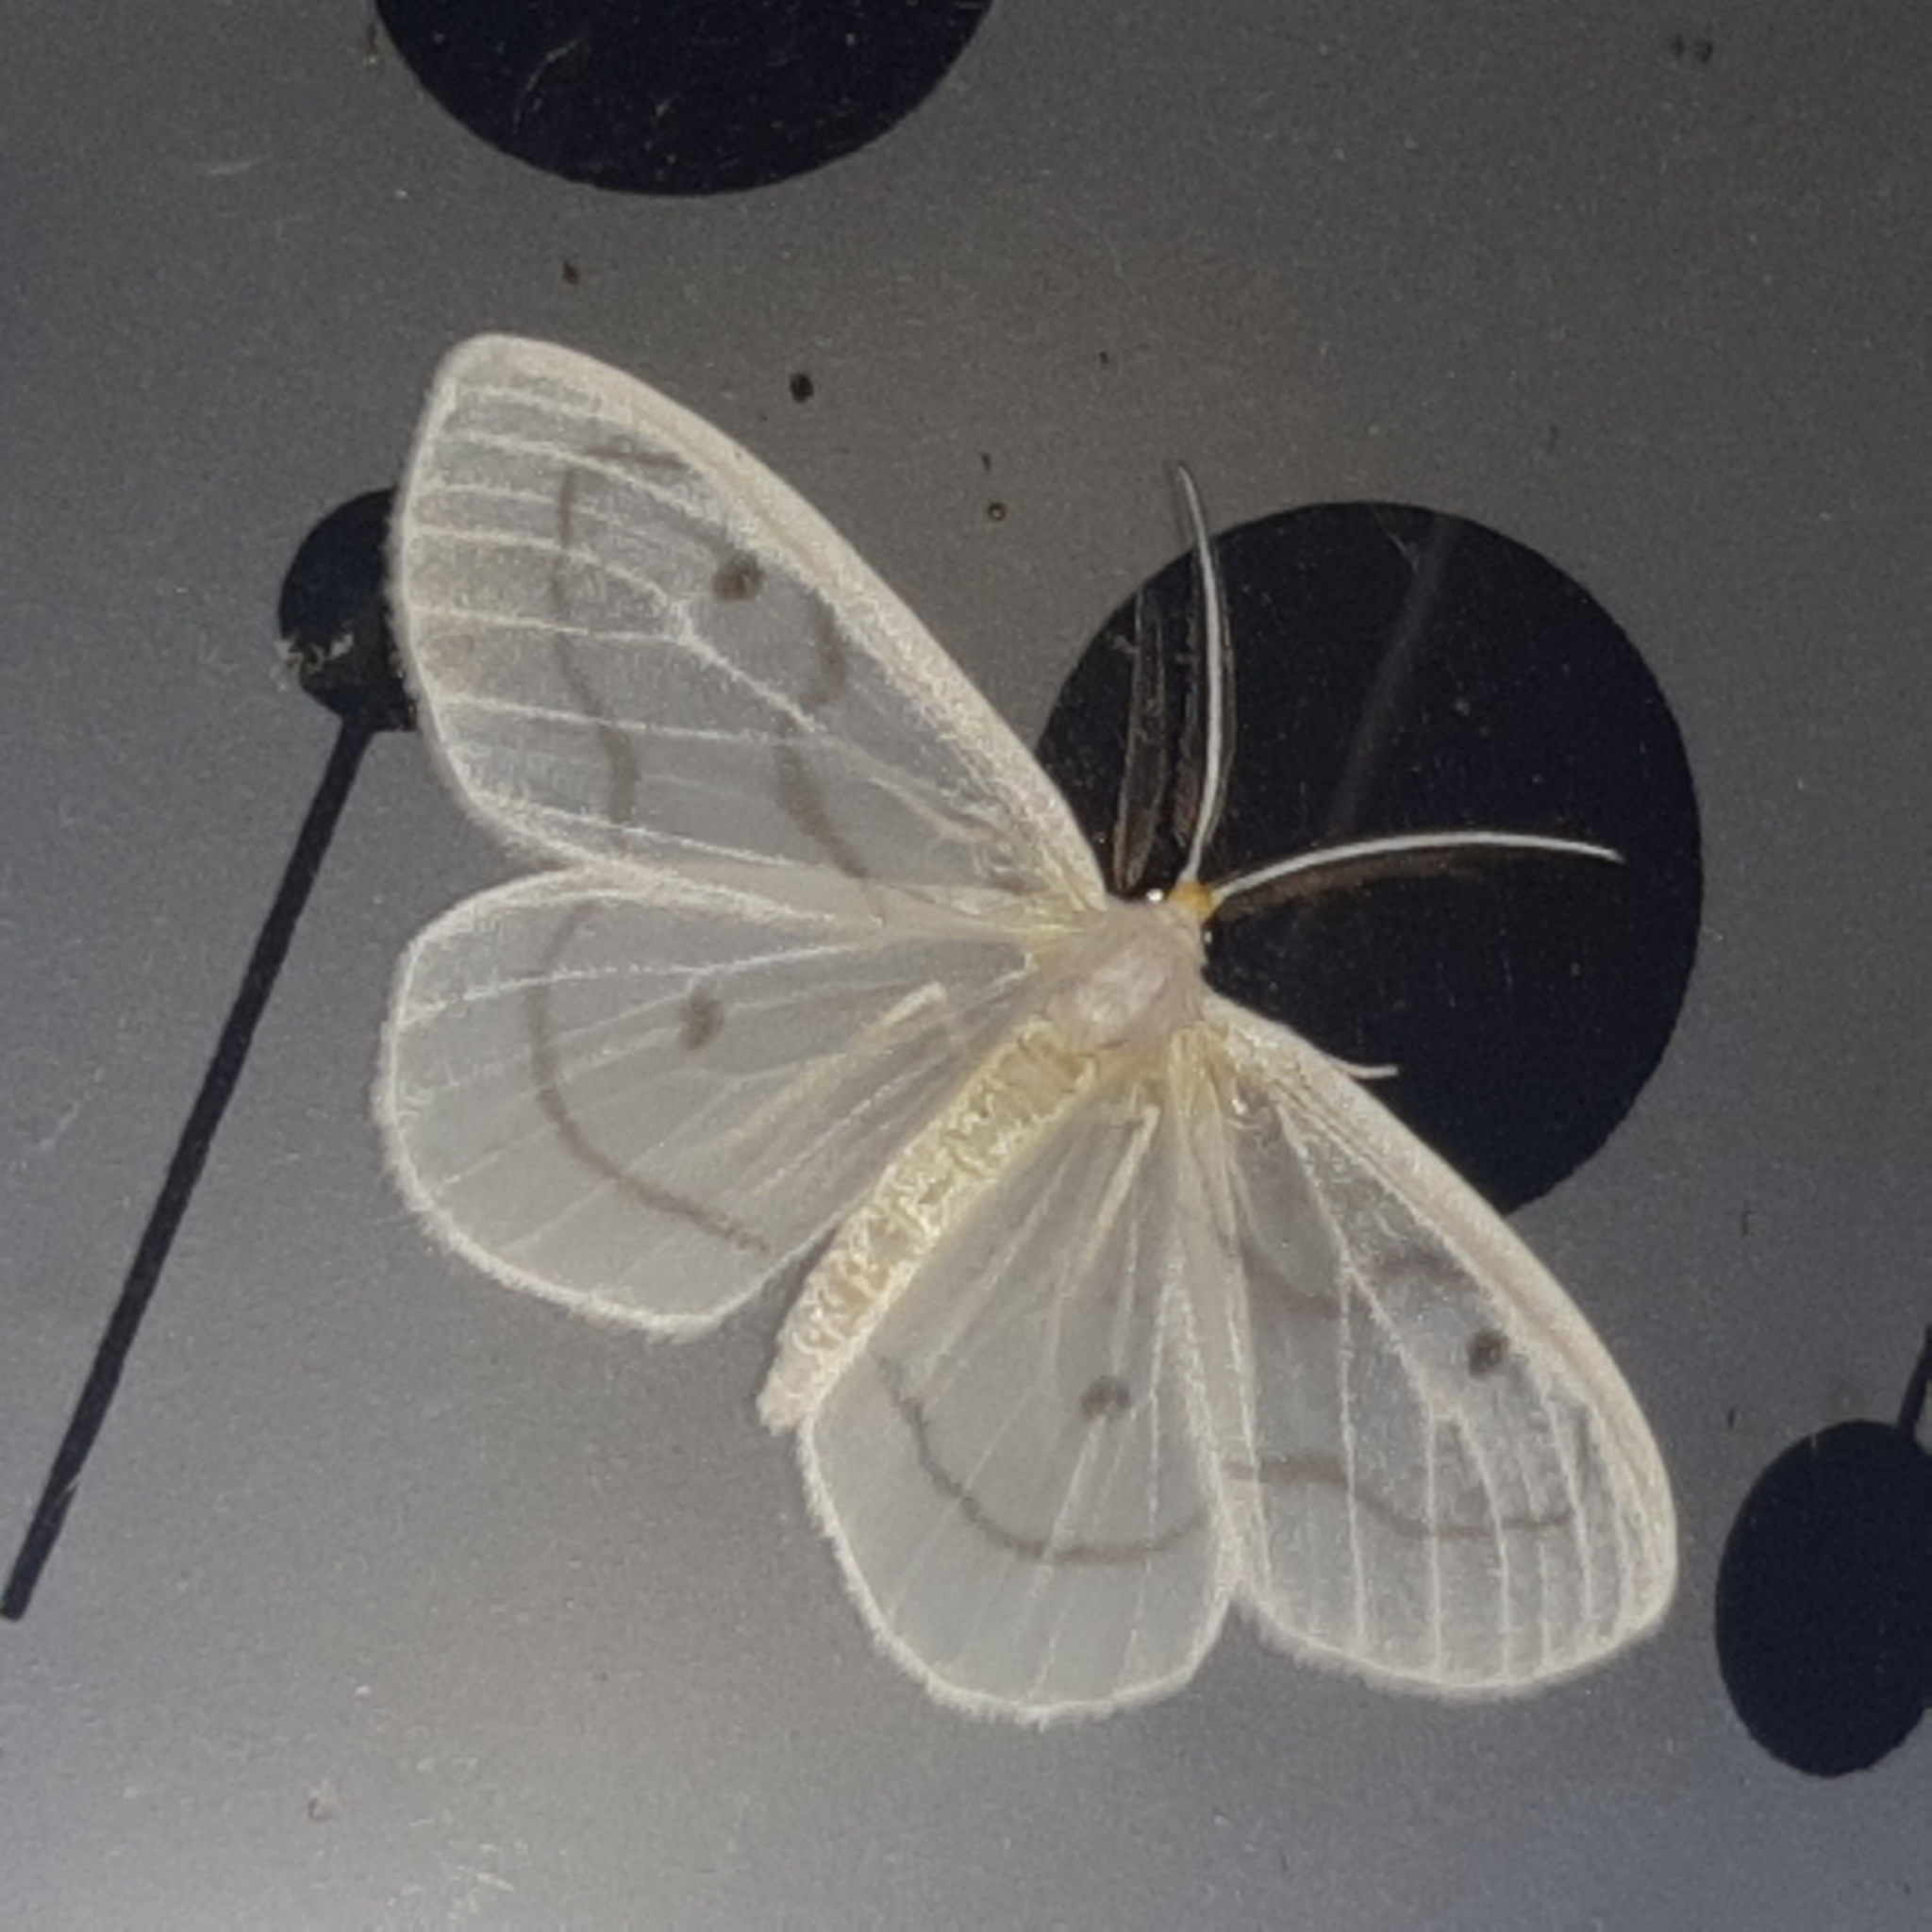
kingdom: Animalia
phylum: Arthropoda
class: Insecta
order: Lepidoptera
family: Geometridae
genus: Leucula
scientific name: Leucula meganira
